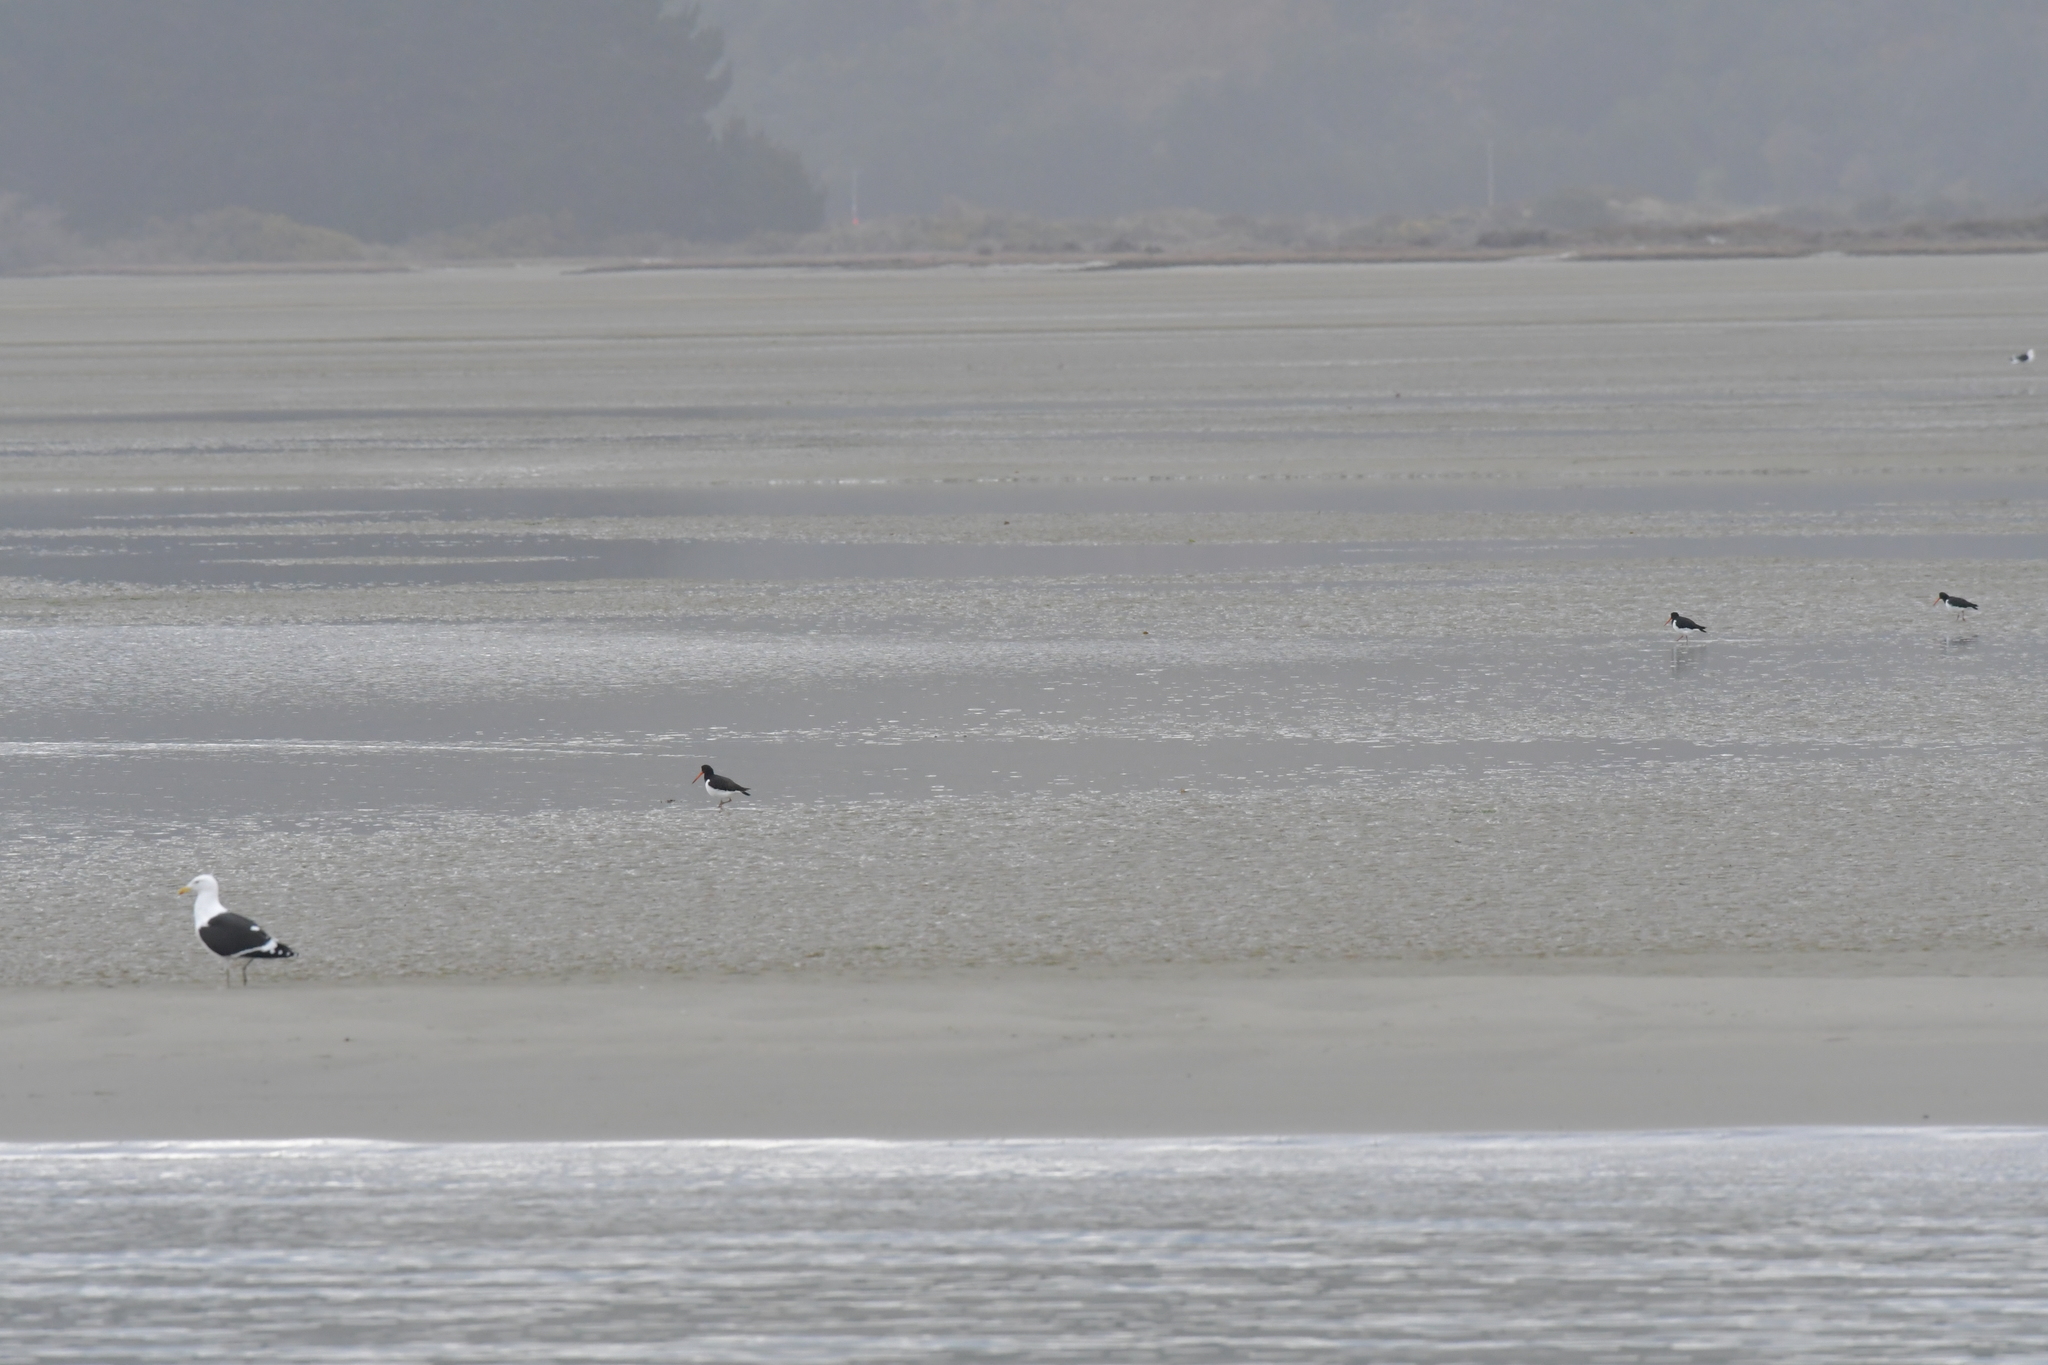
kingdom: Animalia
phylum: Chordata
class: Aves
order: Charadriiformes
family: Haematopodidae
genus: Haematopus
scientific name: Haematopus finschi
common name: South island oystercatcher
